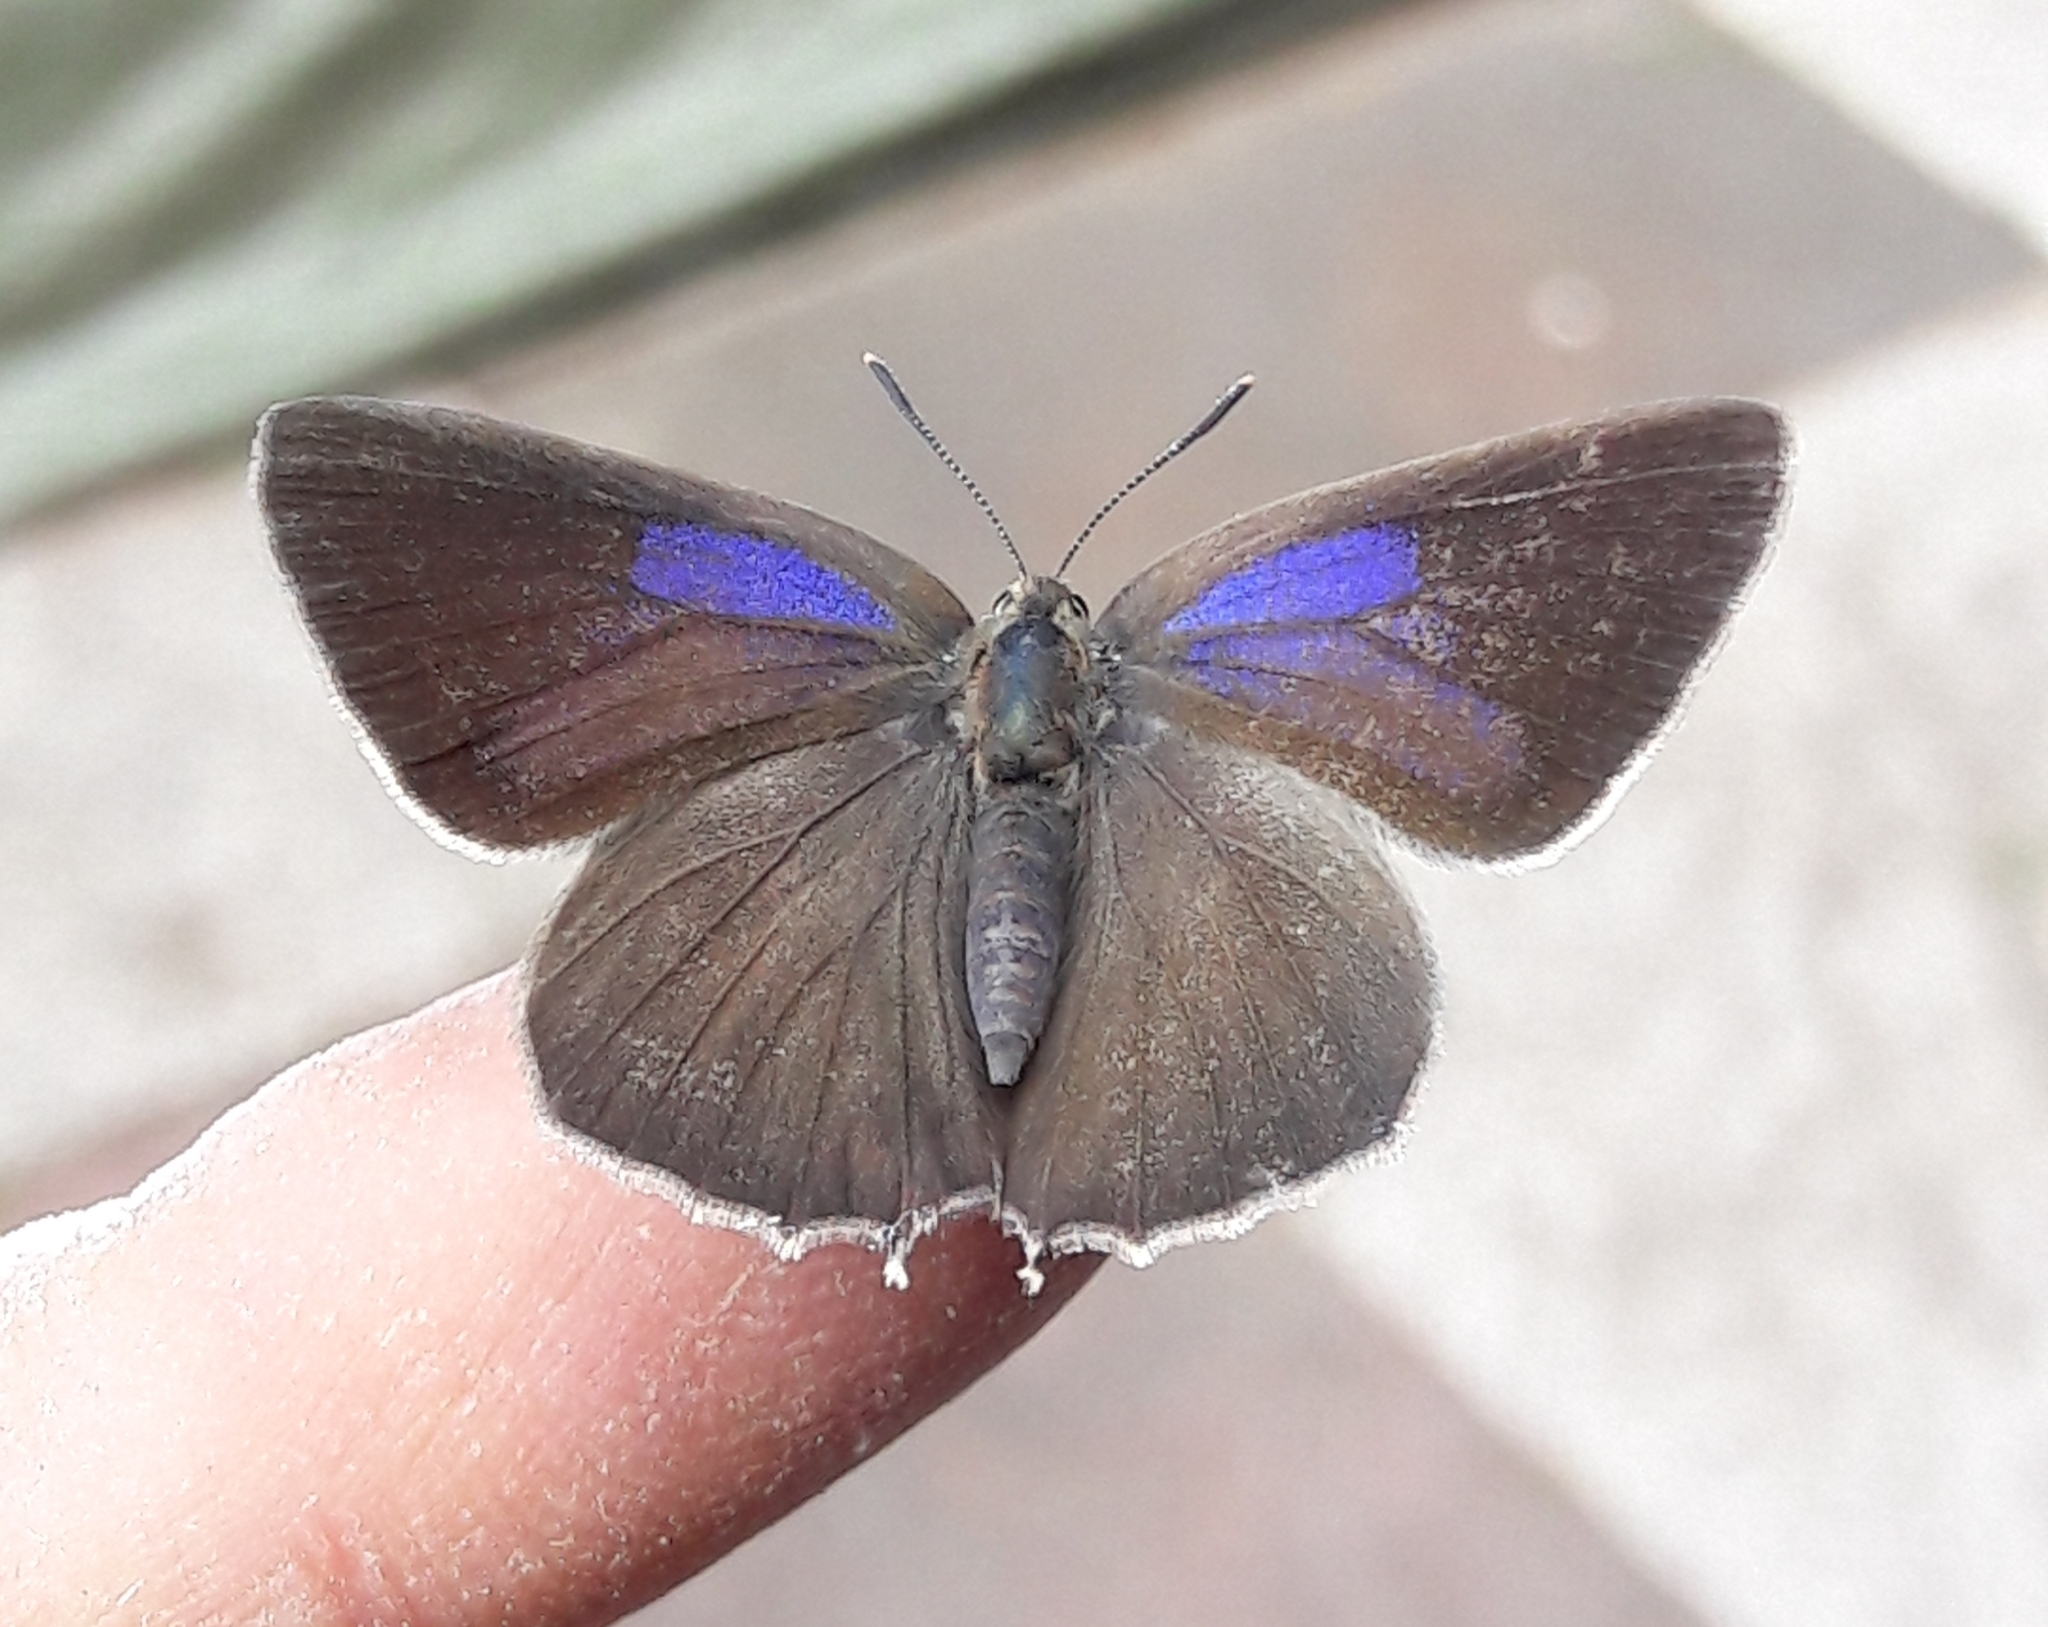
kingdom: Animalia
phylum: Arthropoda
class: Insecta
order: Lepidoptera
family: Lycaenidae
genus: Quercusia
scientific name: Quercusia quercus
